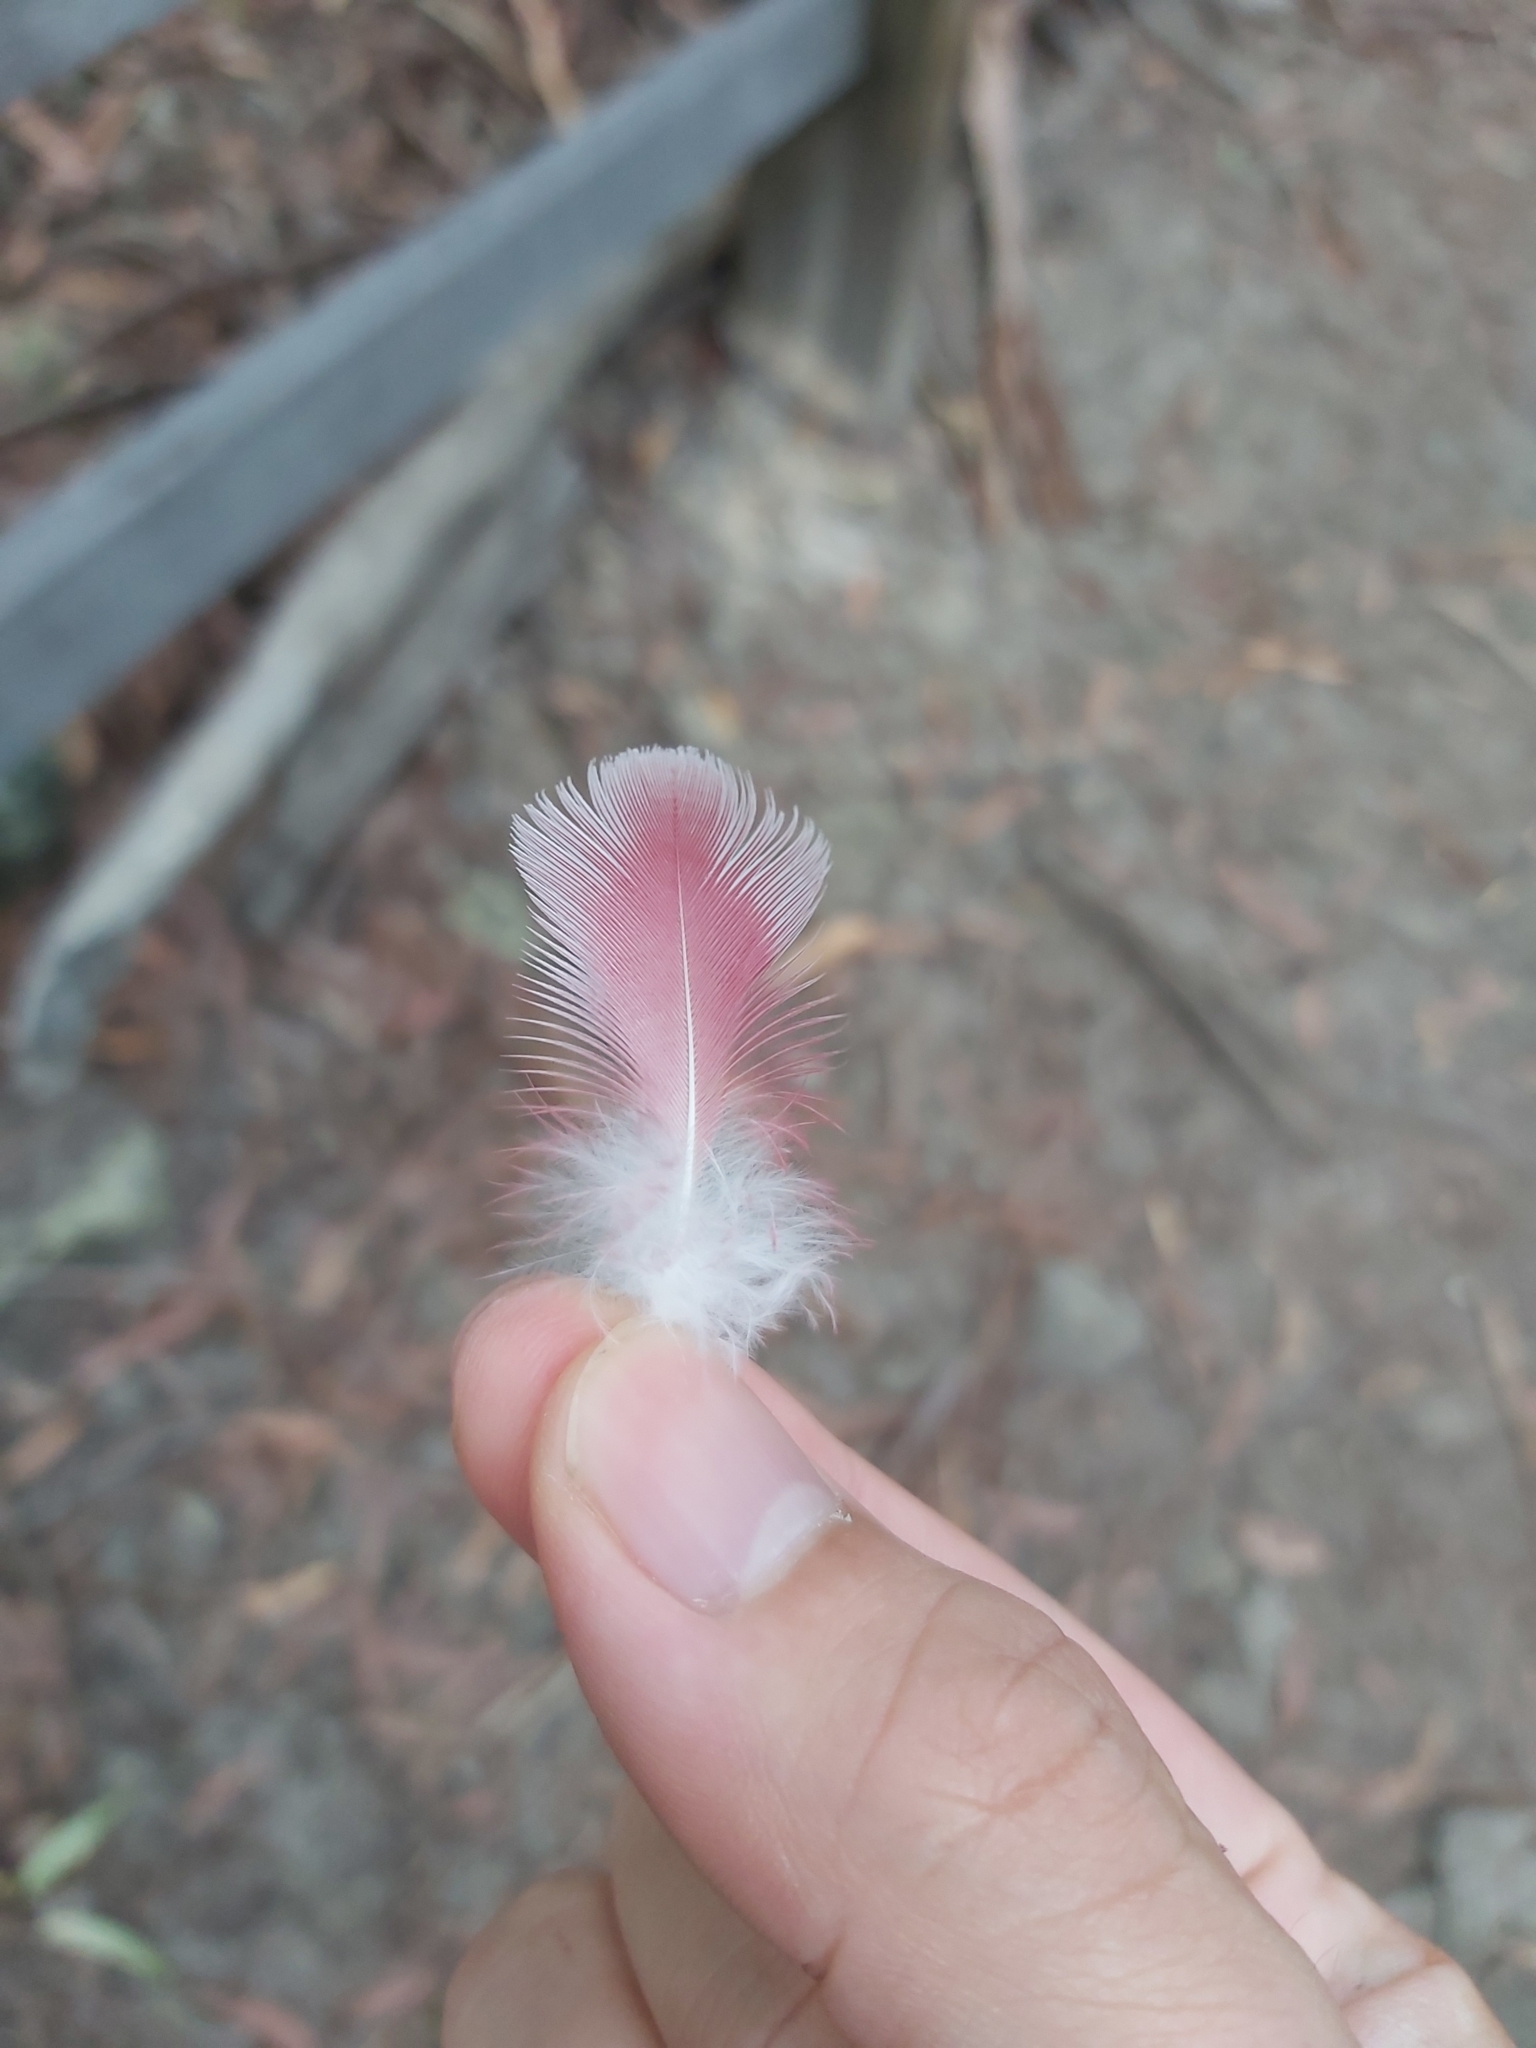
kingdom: Animalia
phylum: Chordata
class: Aves
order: Psittaciformes
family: Psittacidae
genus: Eolophus
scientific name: Eolophus roseicapilla
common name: Galah
